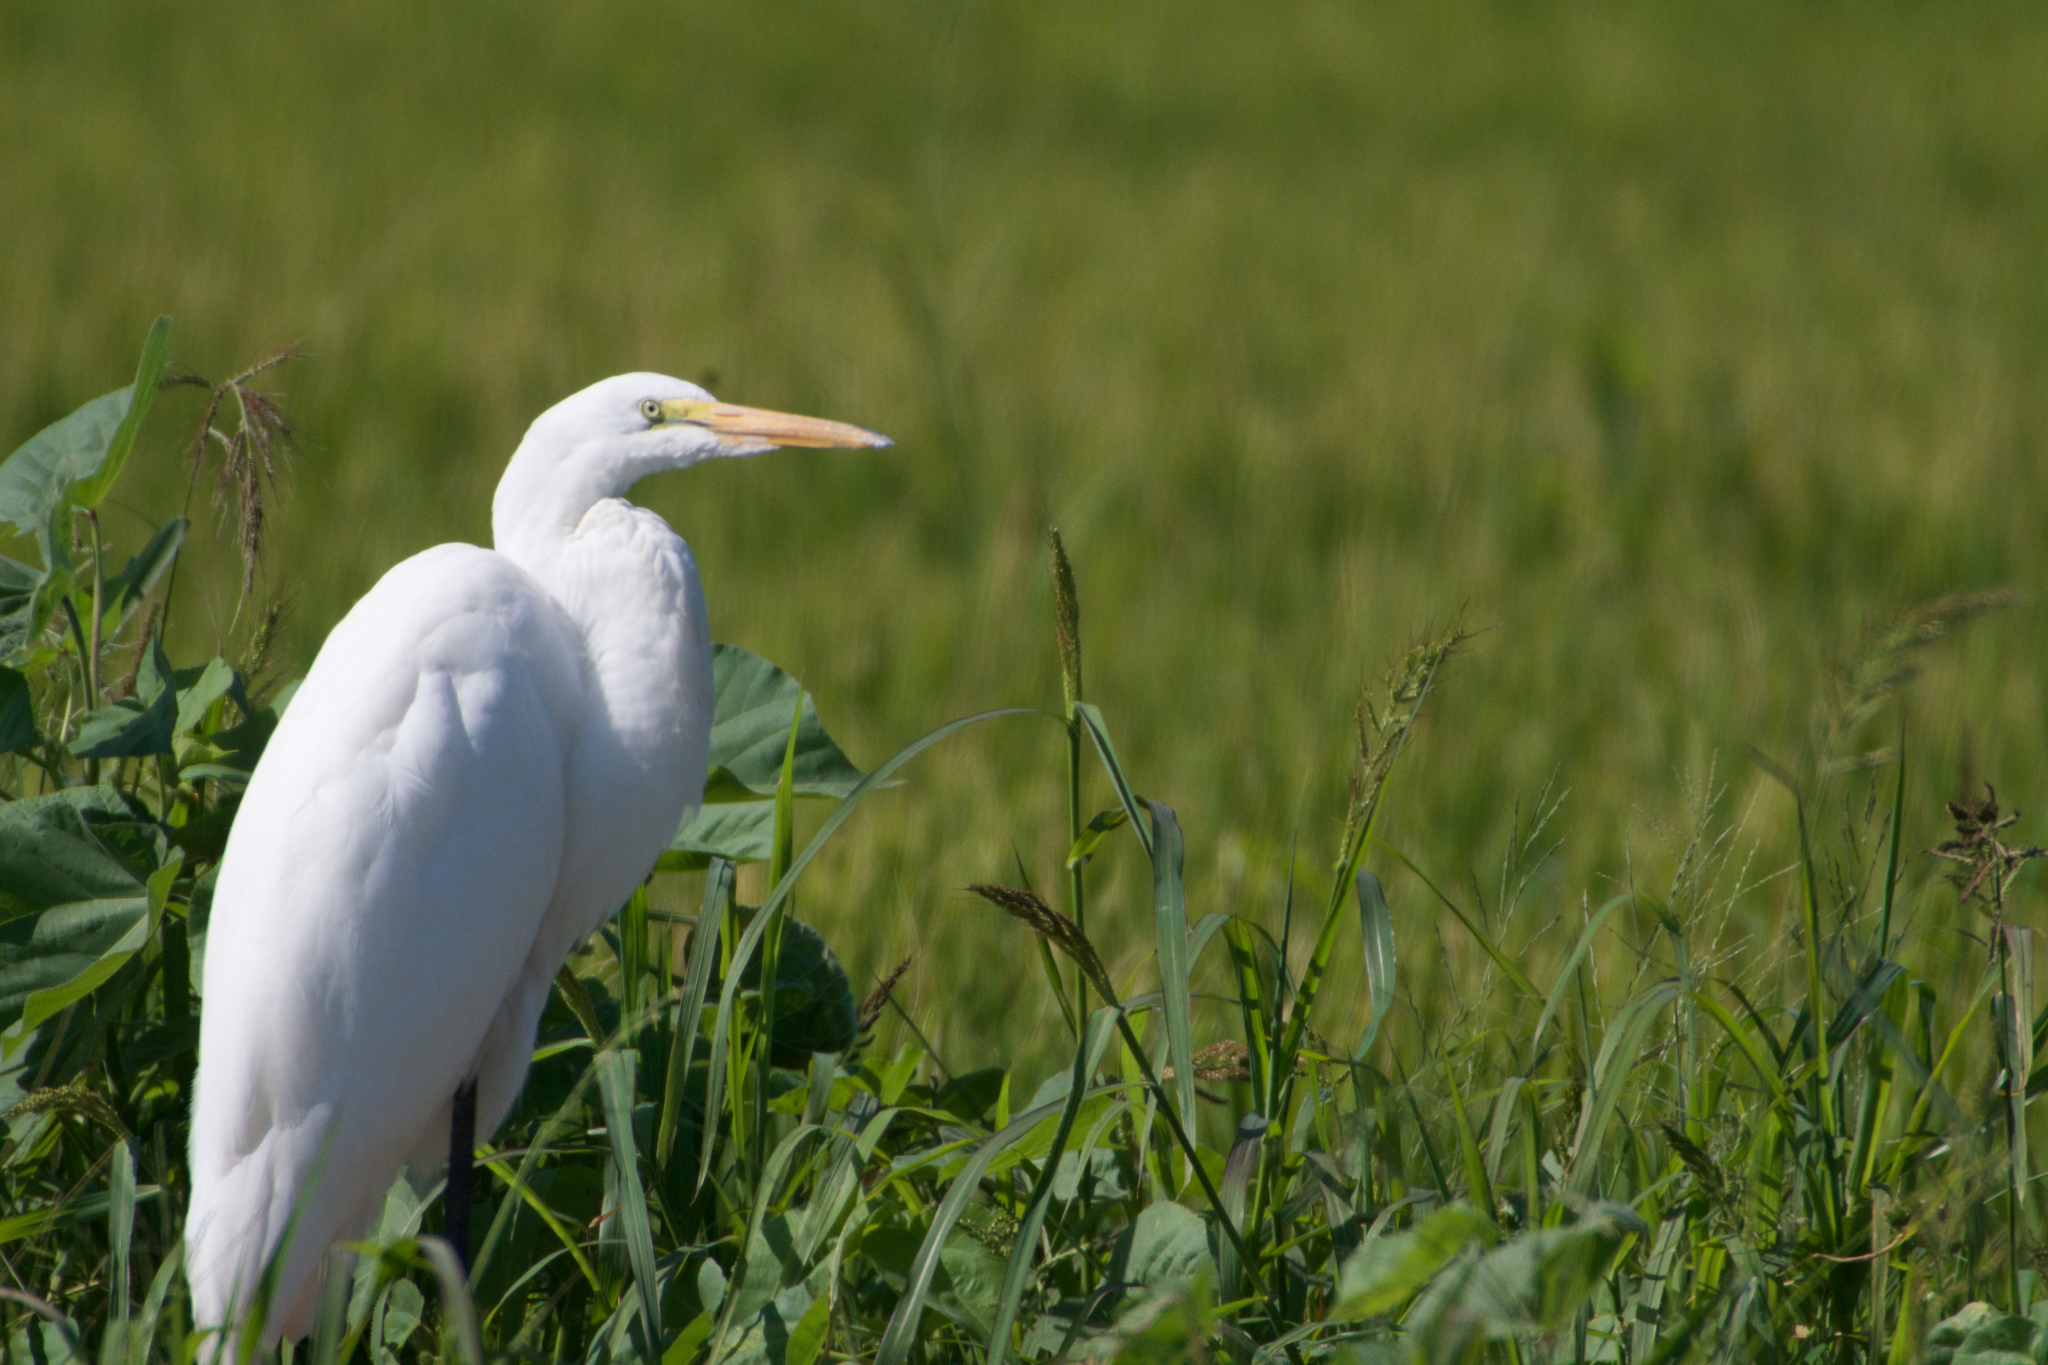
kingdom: Animalia
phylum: Chordata
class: Aves
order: Pelecaniformes
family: Ardeidae
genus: Ardea
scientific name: Ardea alba
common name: Great egret
